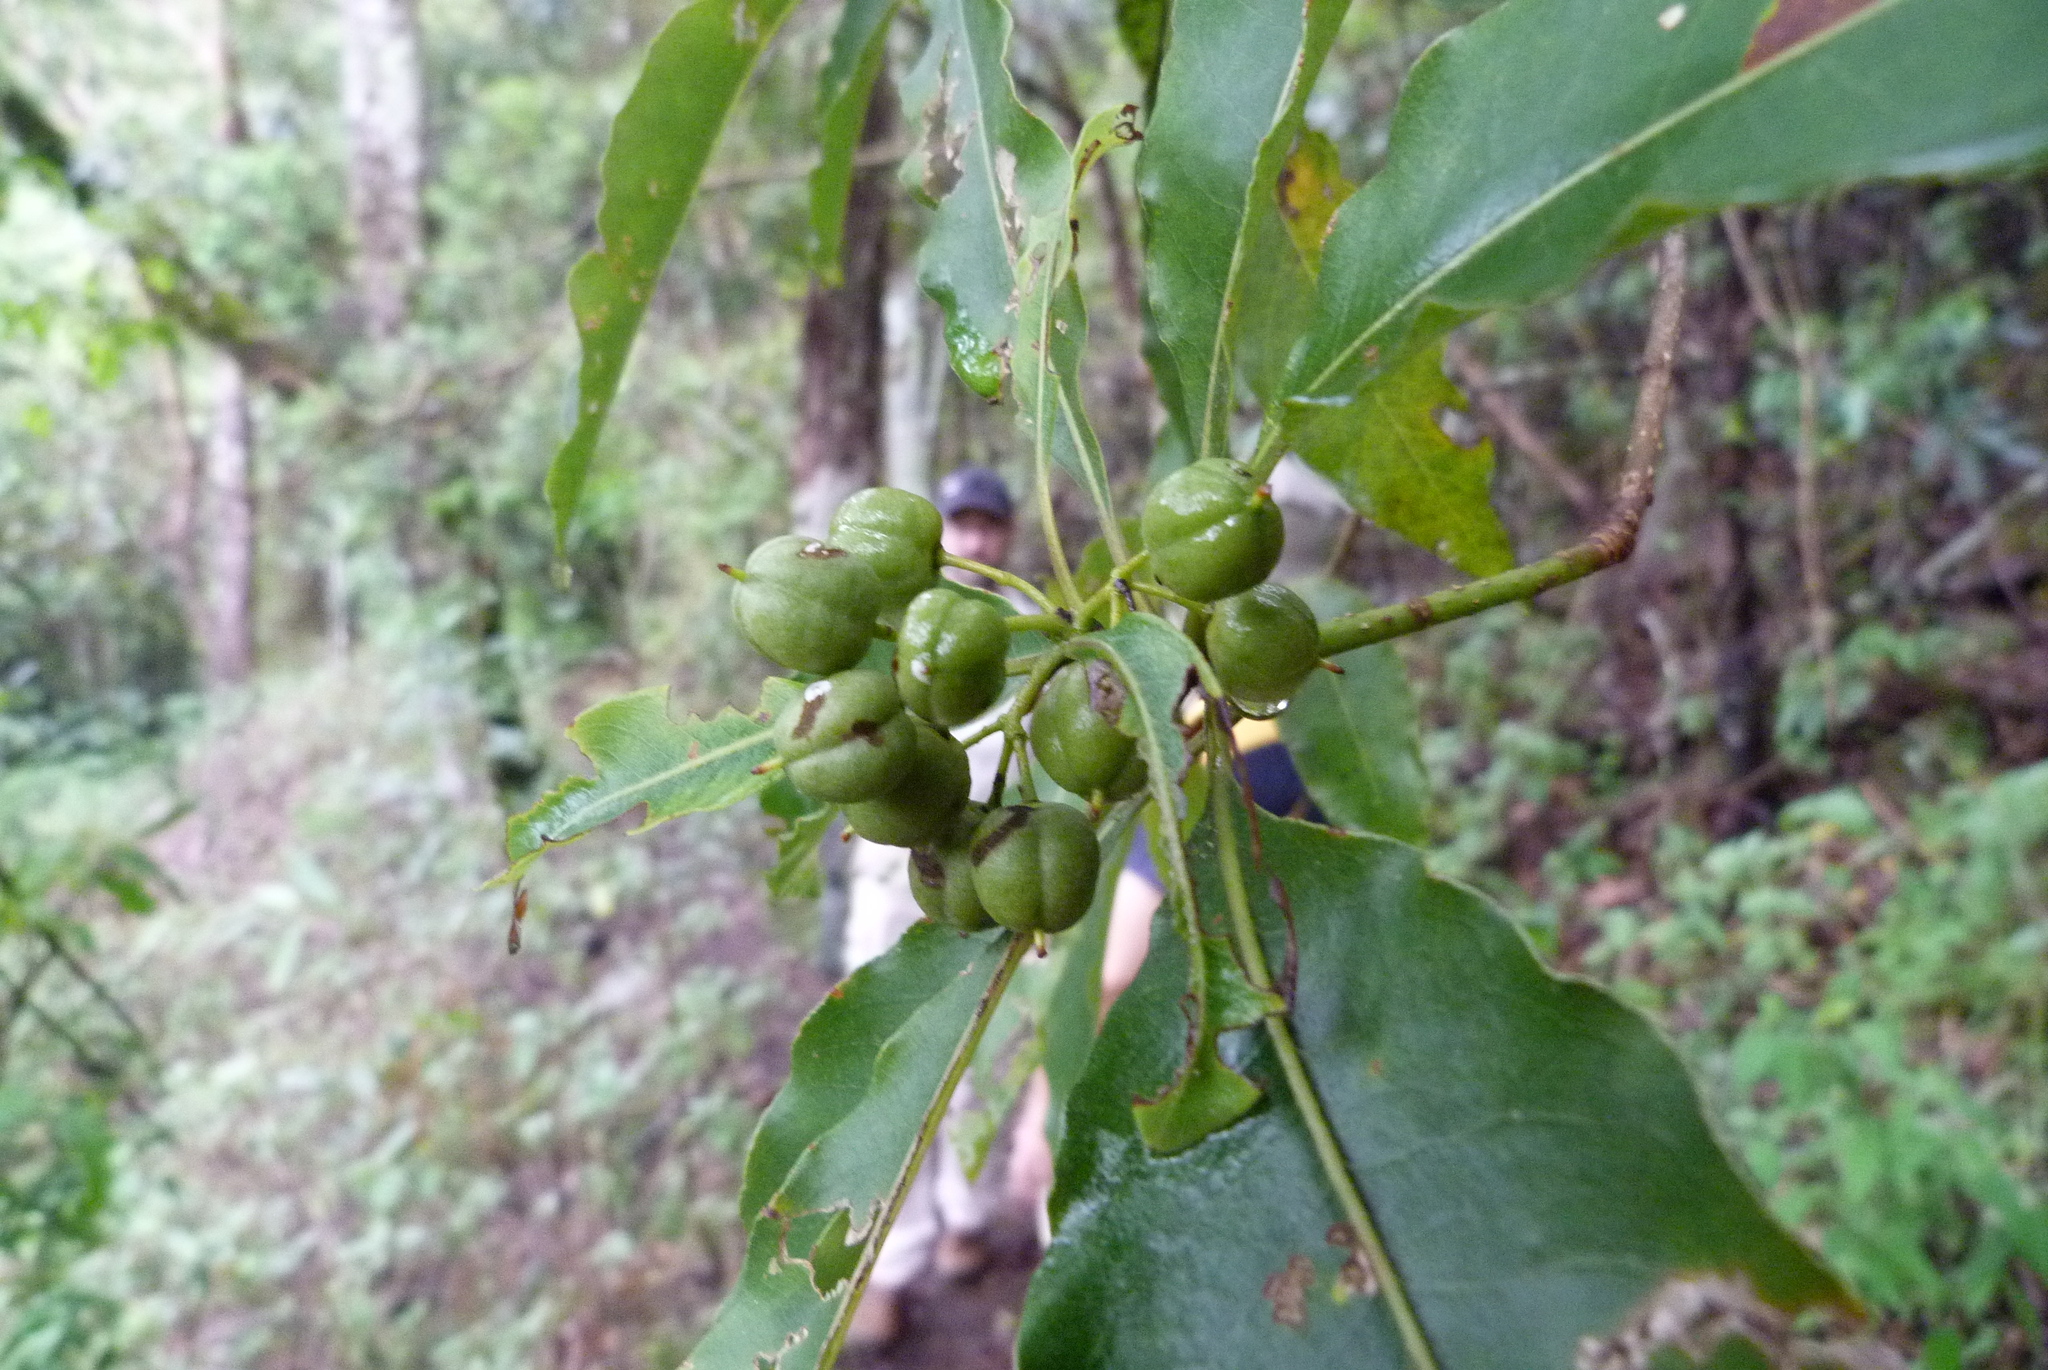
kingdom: Plantae
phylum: Tracheophyta
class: Magnoliopsida
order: Apiales
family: Pittosporaceae
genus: Pittosporum
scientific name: Pittosporum undulatum
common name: Australian cheesewood
